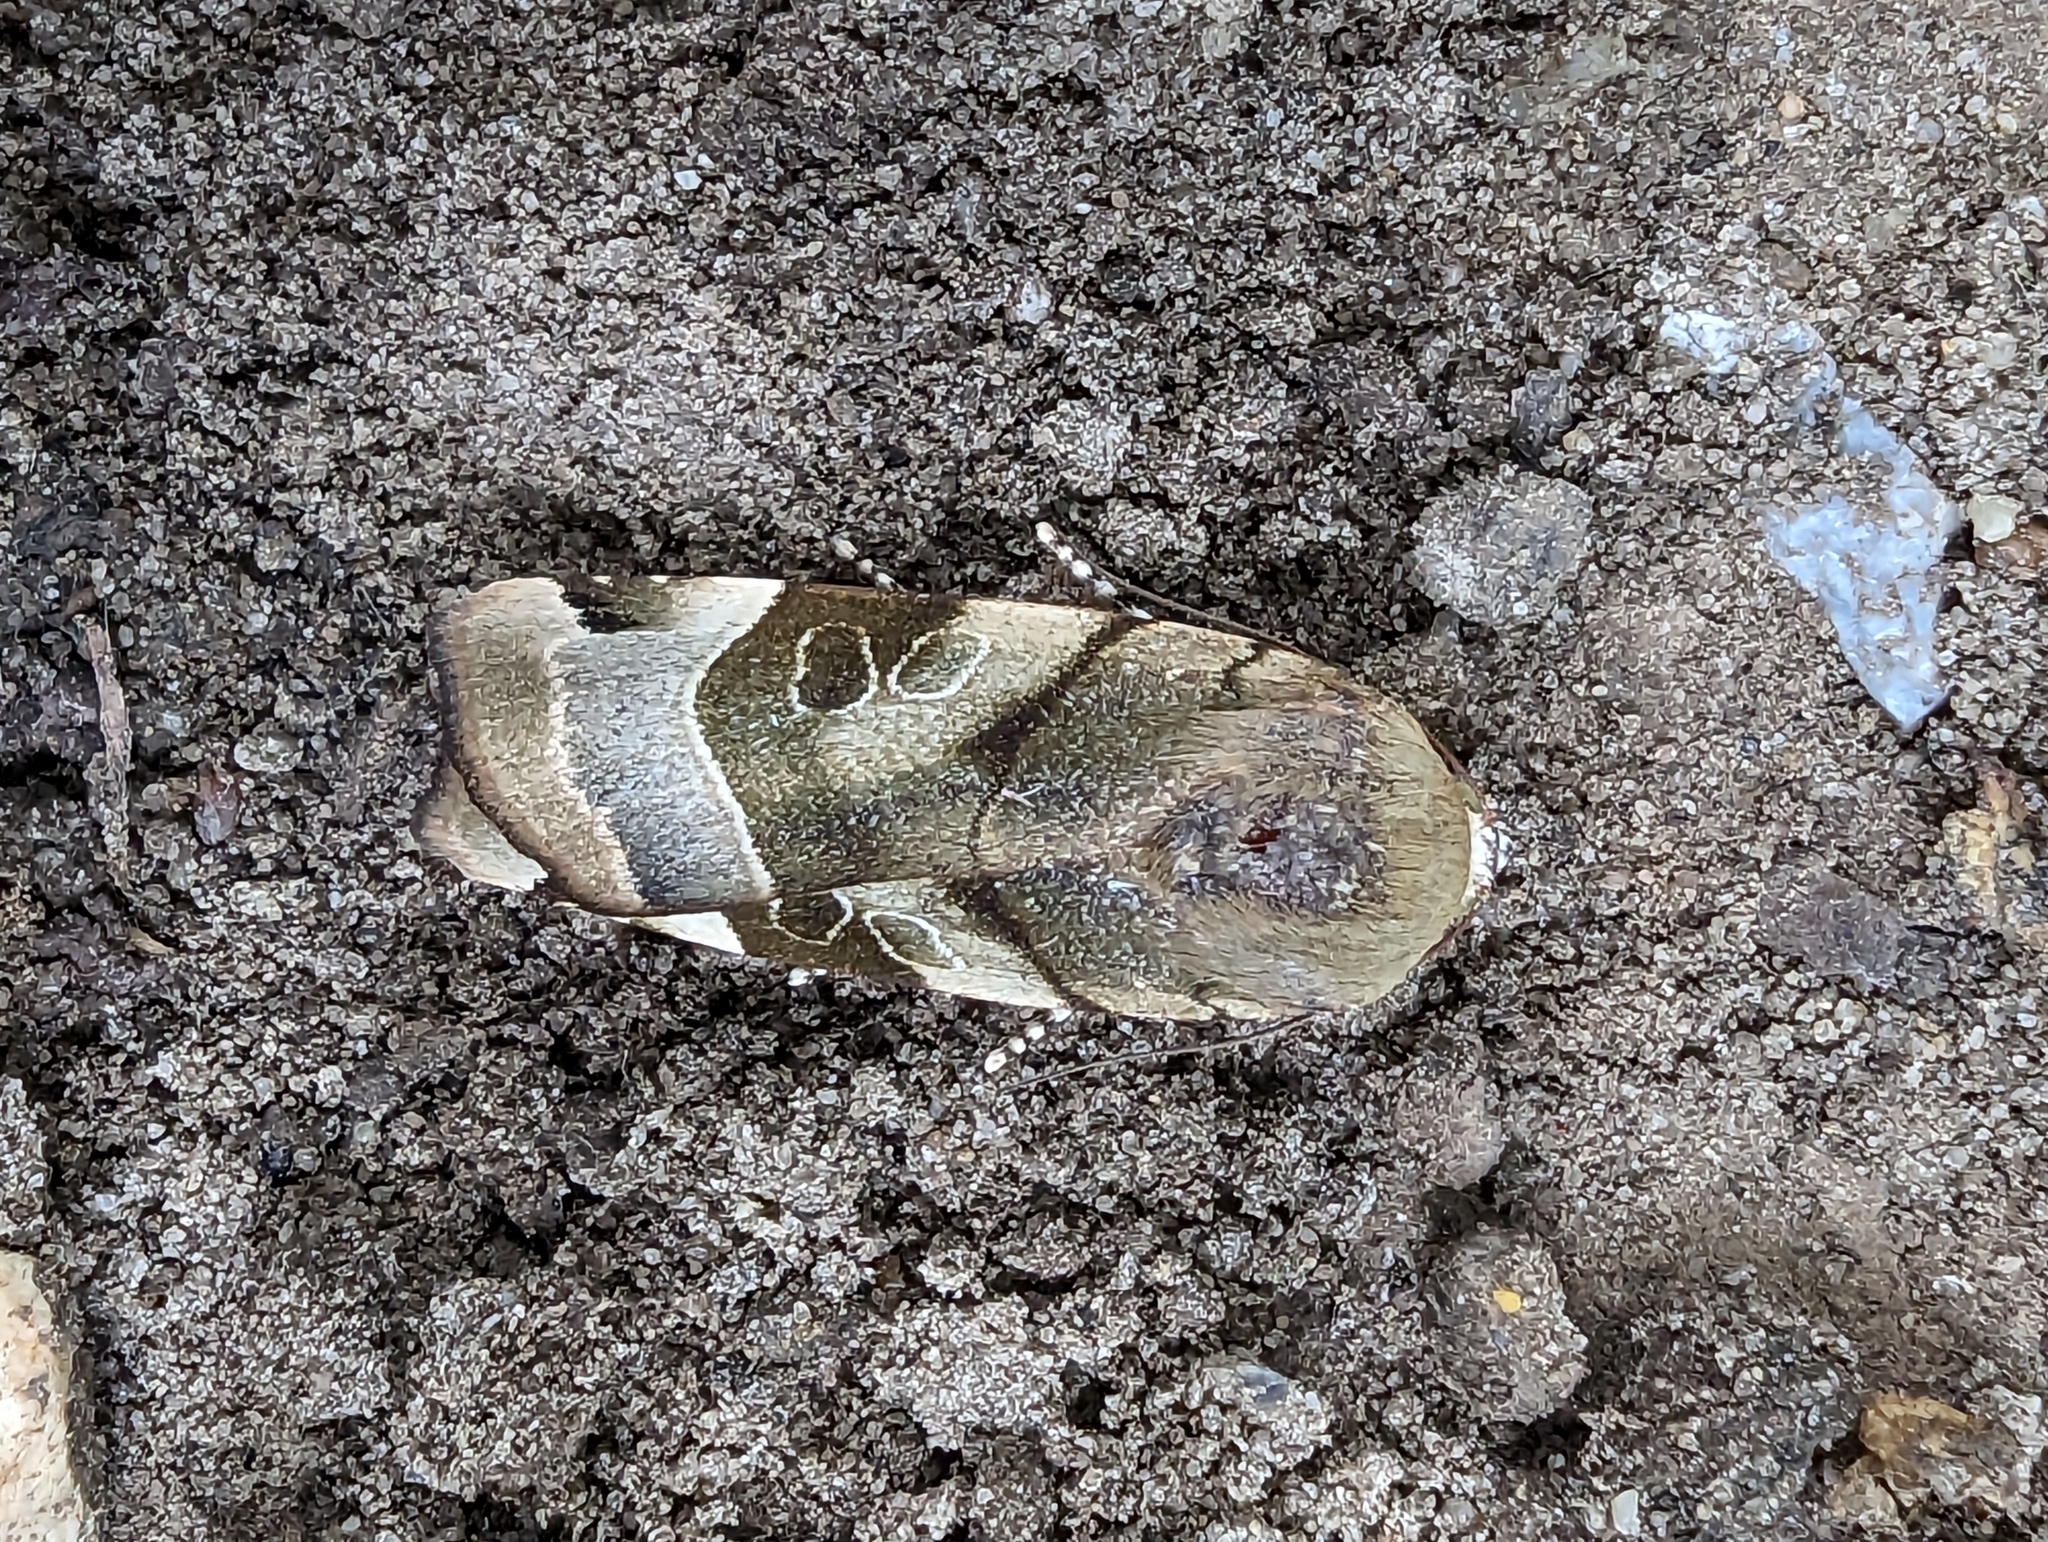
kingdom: Animalia
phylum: Arthropoda
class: Insecta
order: Lepidoptera
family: Noctuidae
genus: Noctua
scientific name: Noctua fimbriata
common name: Broad-bordered yellow underwing
